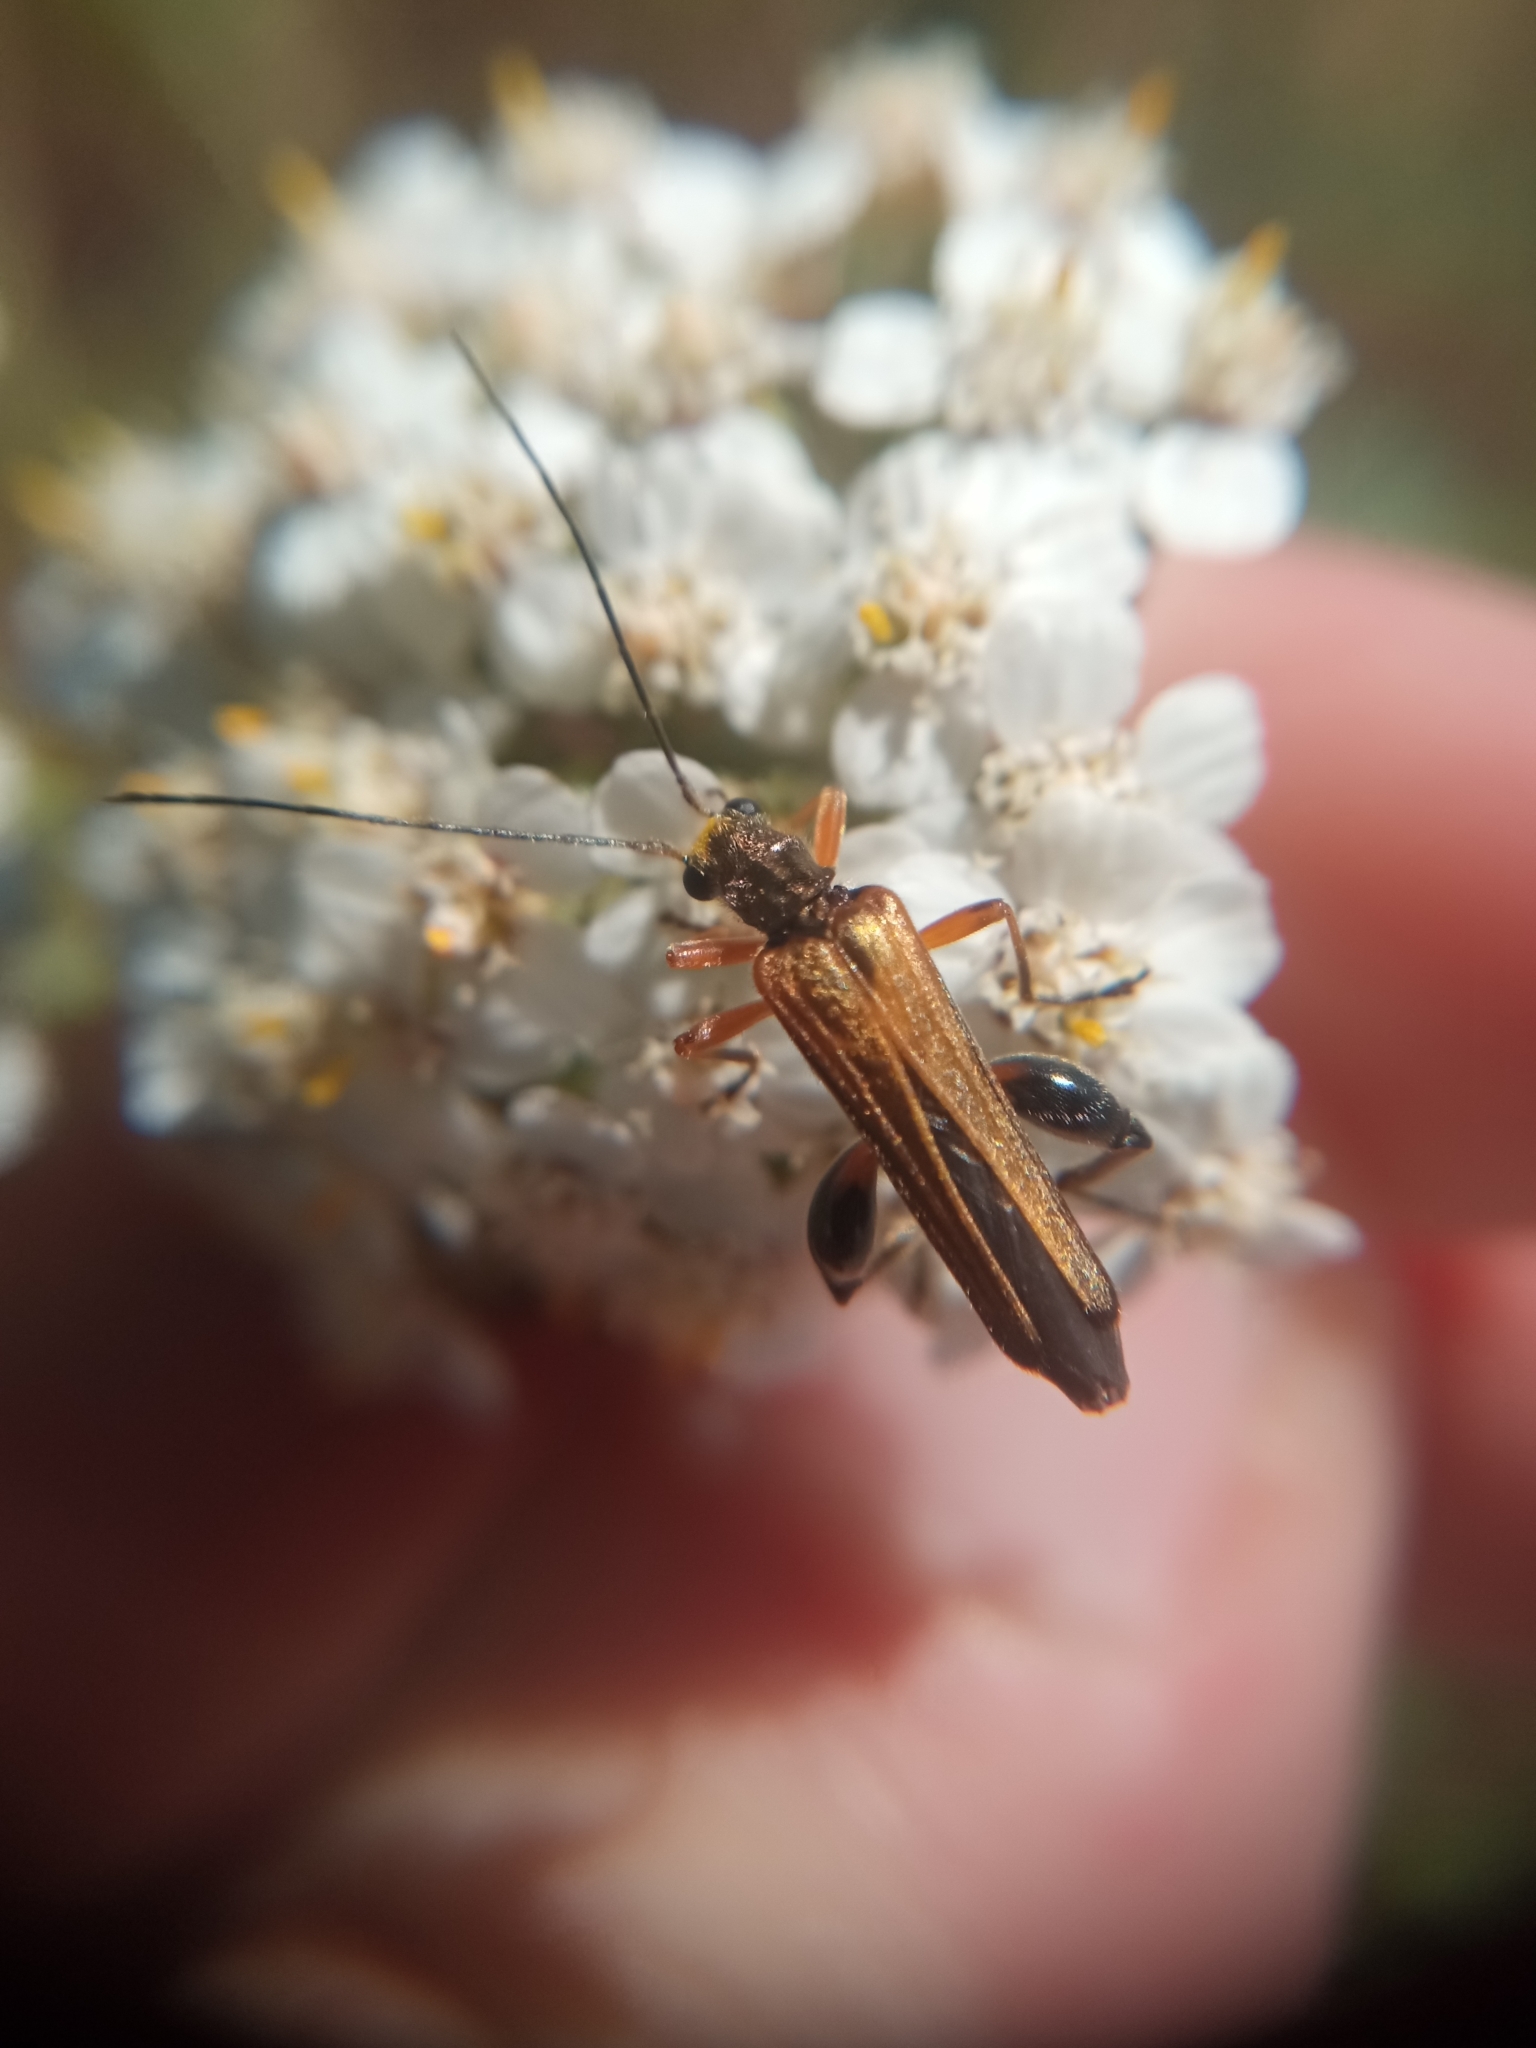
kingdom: Animalia
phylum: Arthropoda
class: Insecta
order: Coleoptera
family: Oedemeridae
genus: Oedemera
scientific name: Oedemera podagrariae
